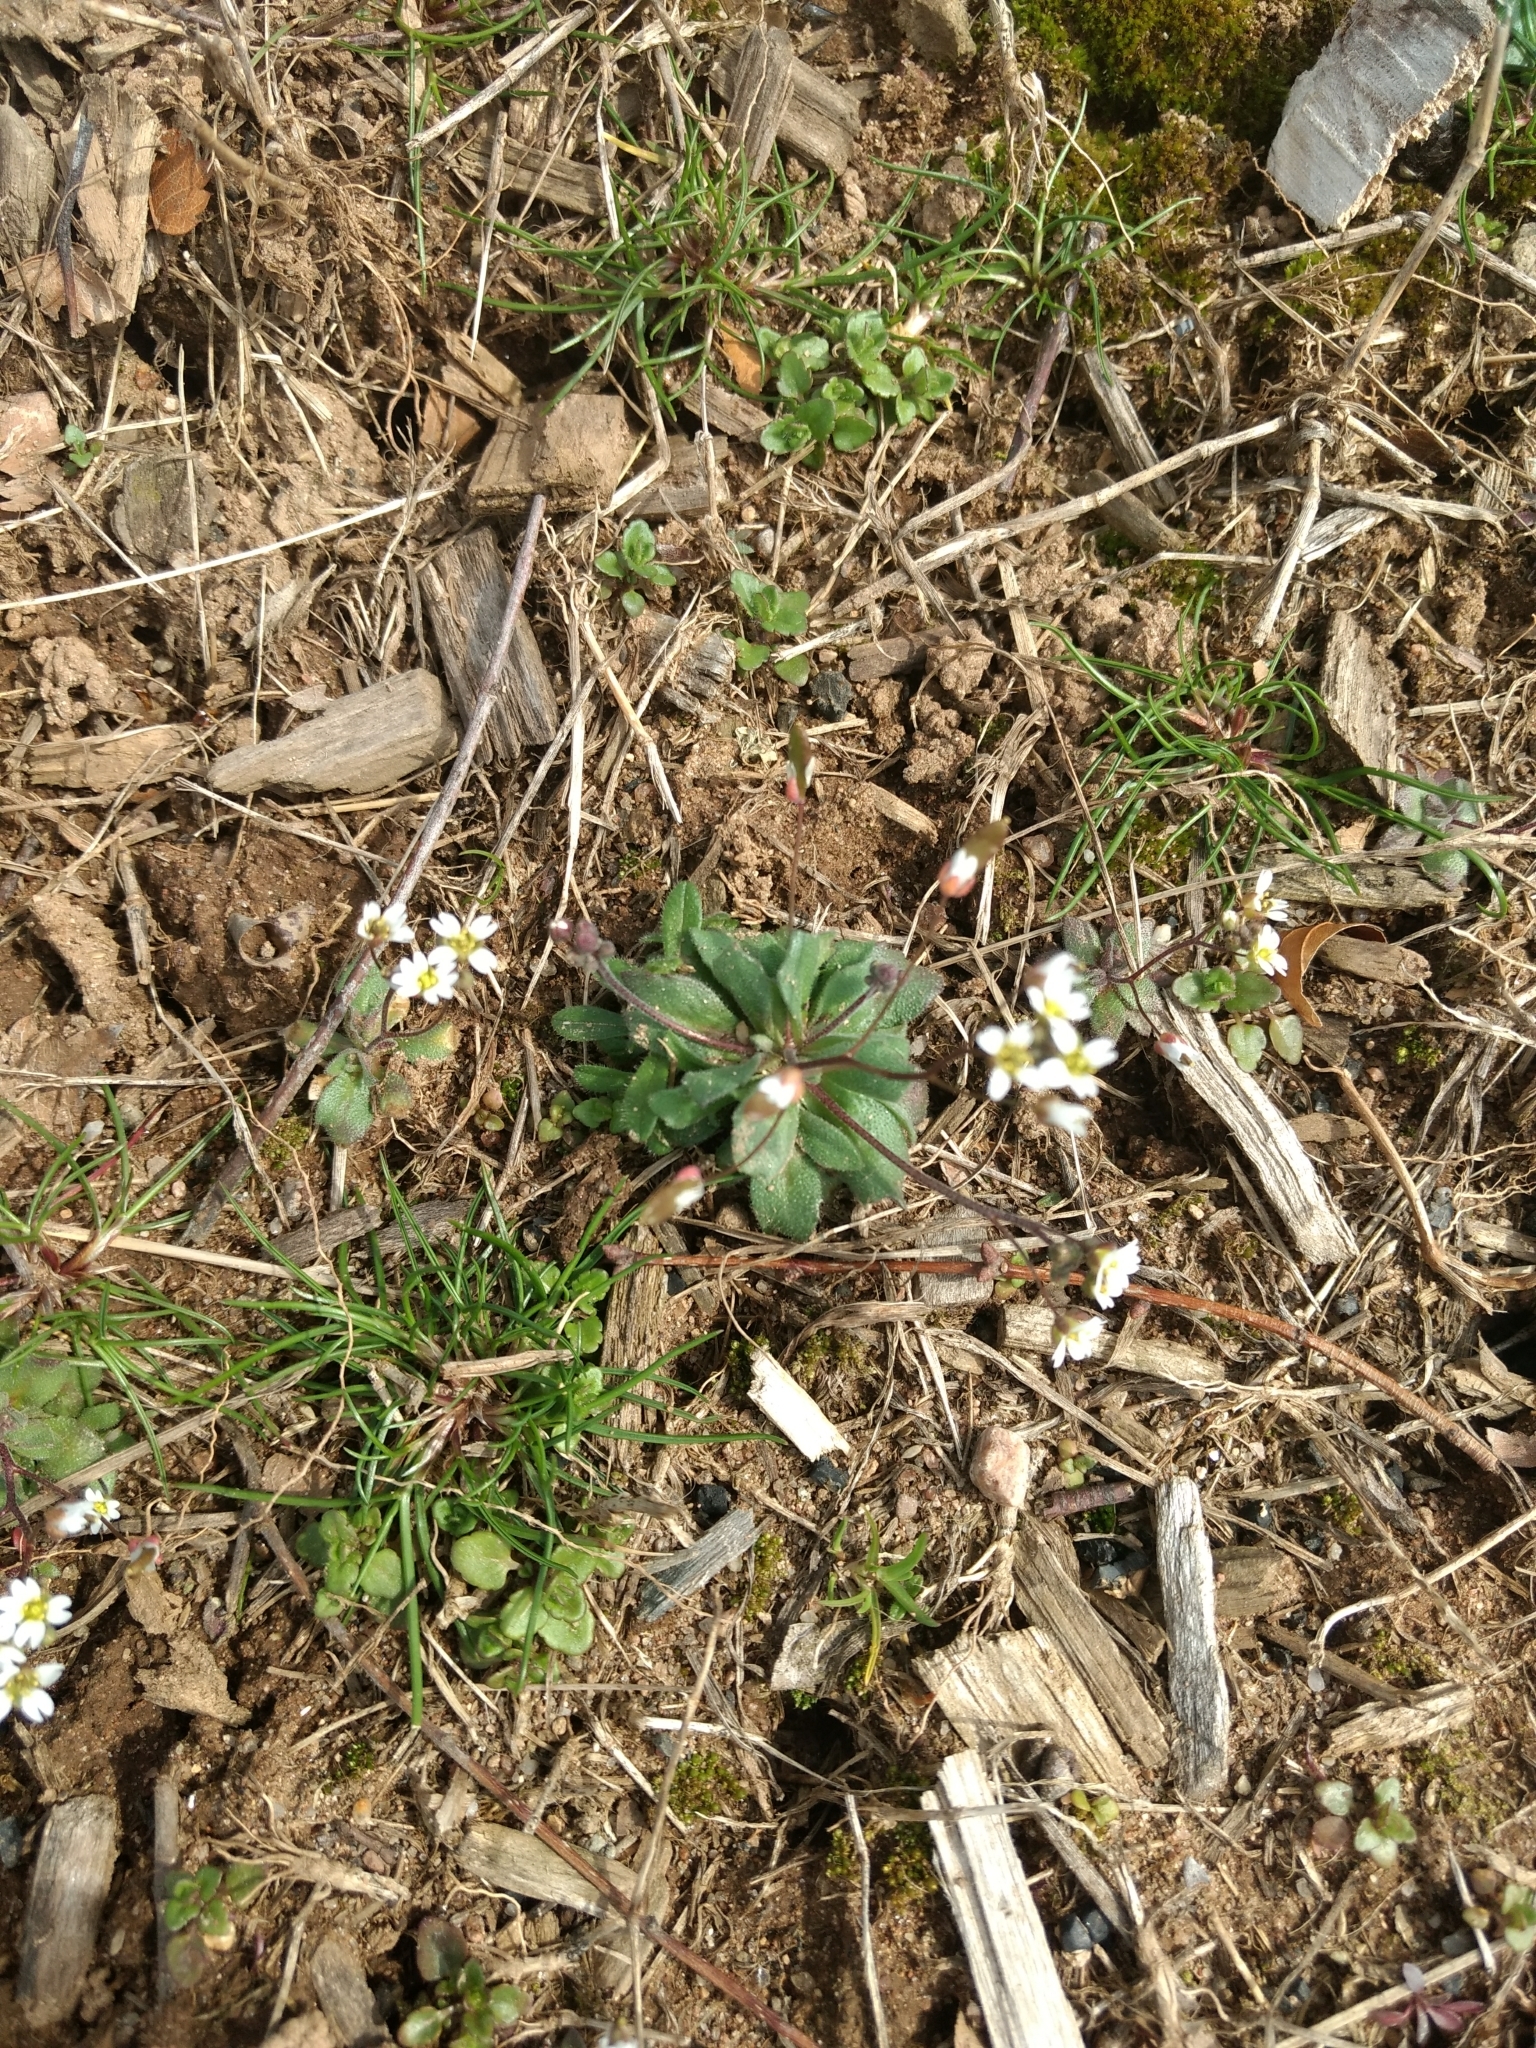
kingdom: Plantae
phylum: Tracheophyta
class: Magnoliopsida
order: Brassicales
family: Brassicaceae
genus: Draba
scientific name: Draba verna
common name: Spring draba
